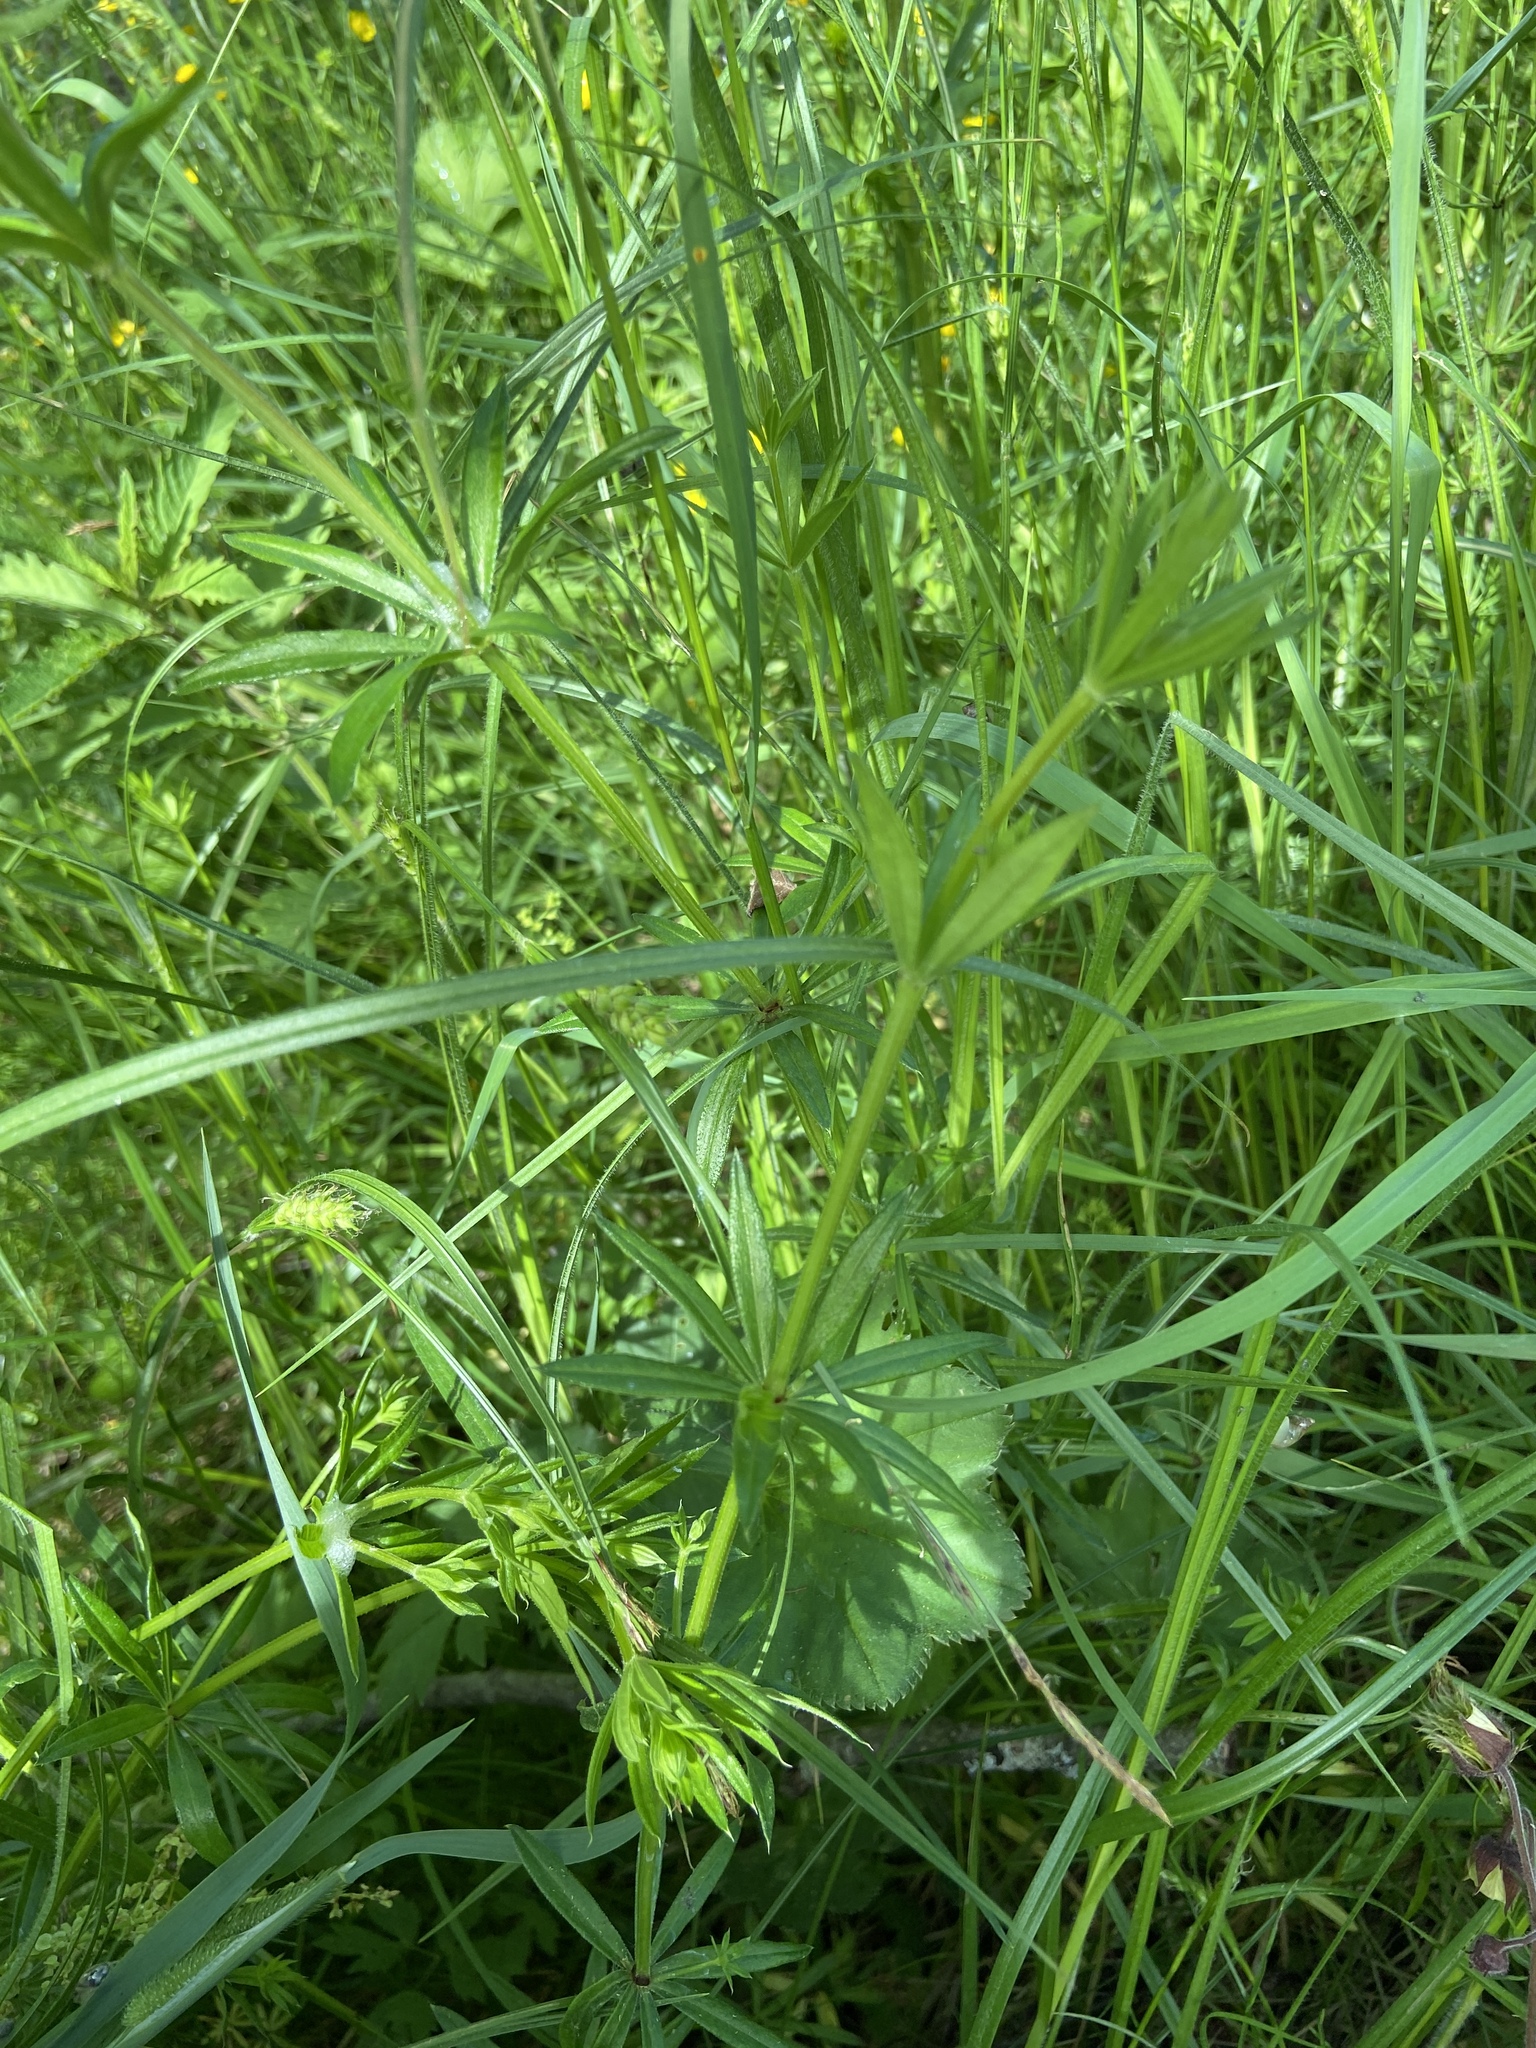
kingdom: Plantae
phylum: Tracheophyta
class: Magnoliopsida
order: Gentianales
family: Rubiaceae
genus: Galium
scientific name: Galium rivale
